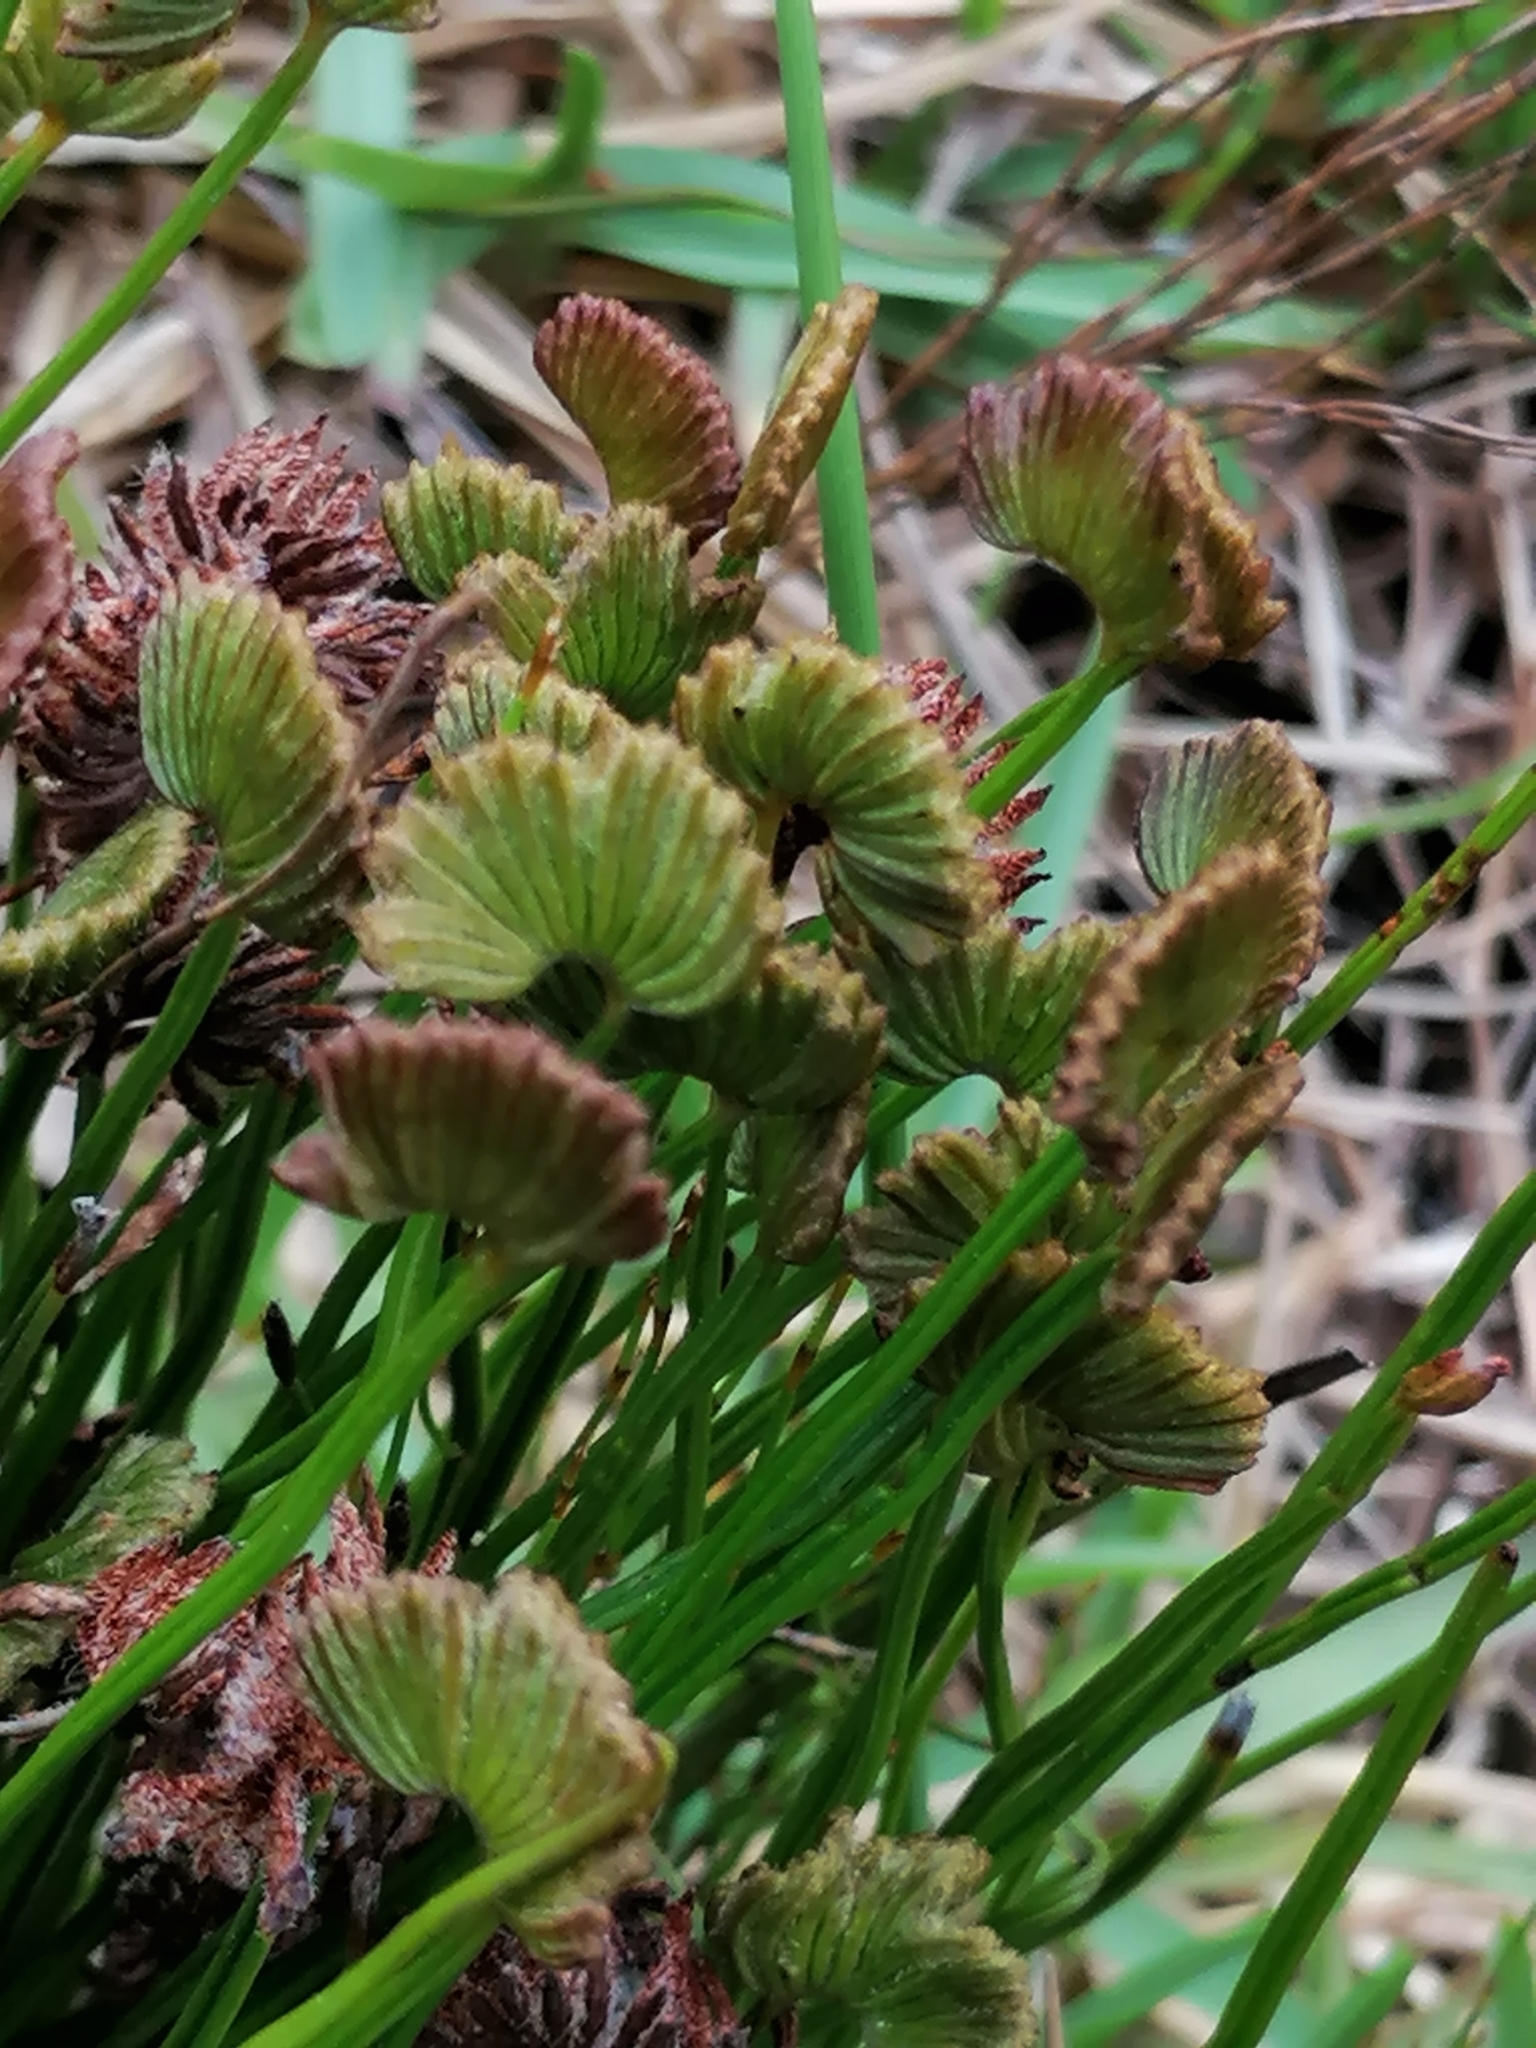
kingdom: Plantae
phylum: Tracheophyta
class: Polypodiopsida
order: Schizaeales
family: Schizaeaceae
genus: Schizaea
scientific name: Schizaea pectinata
